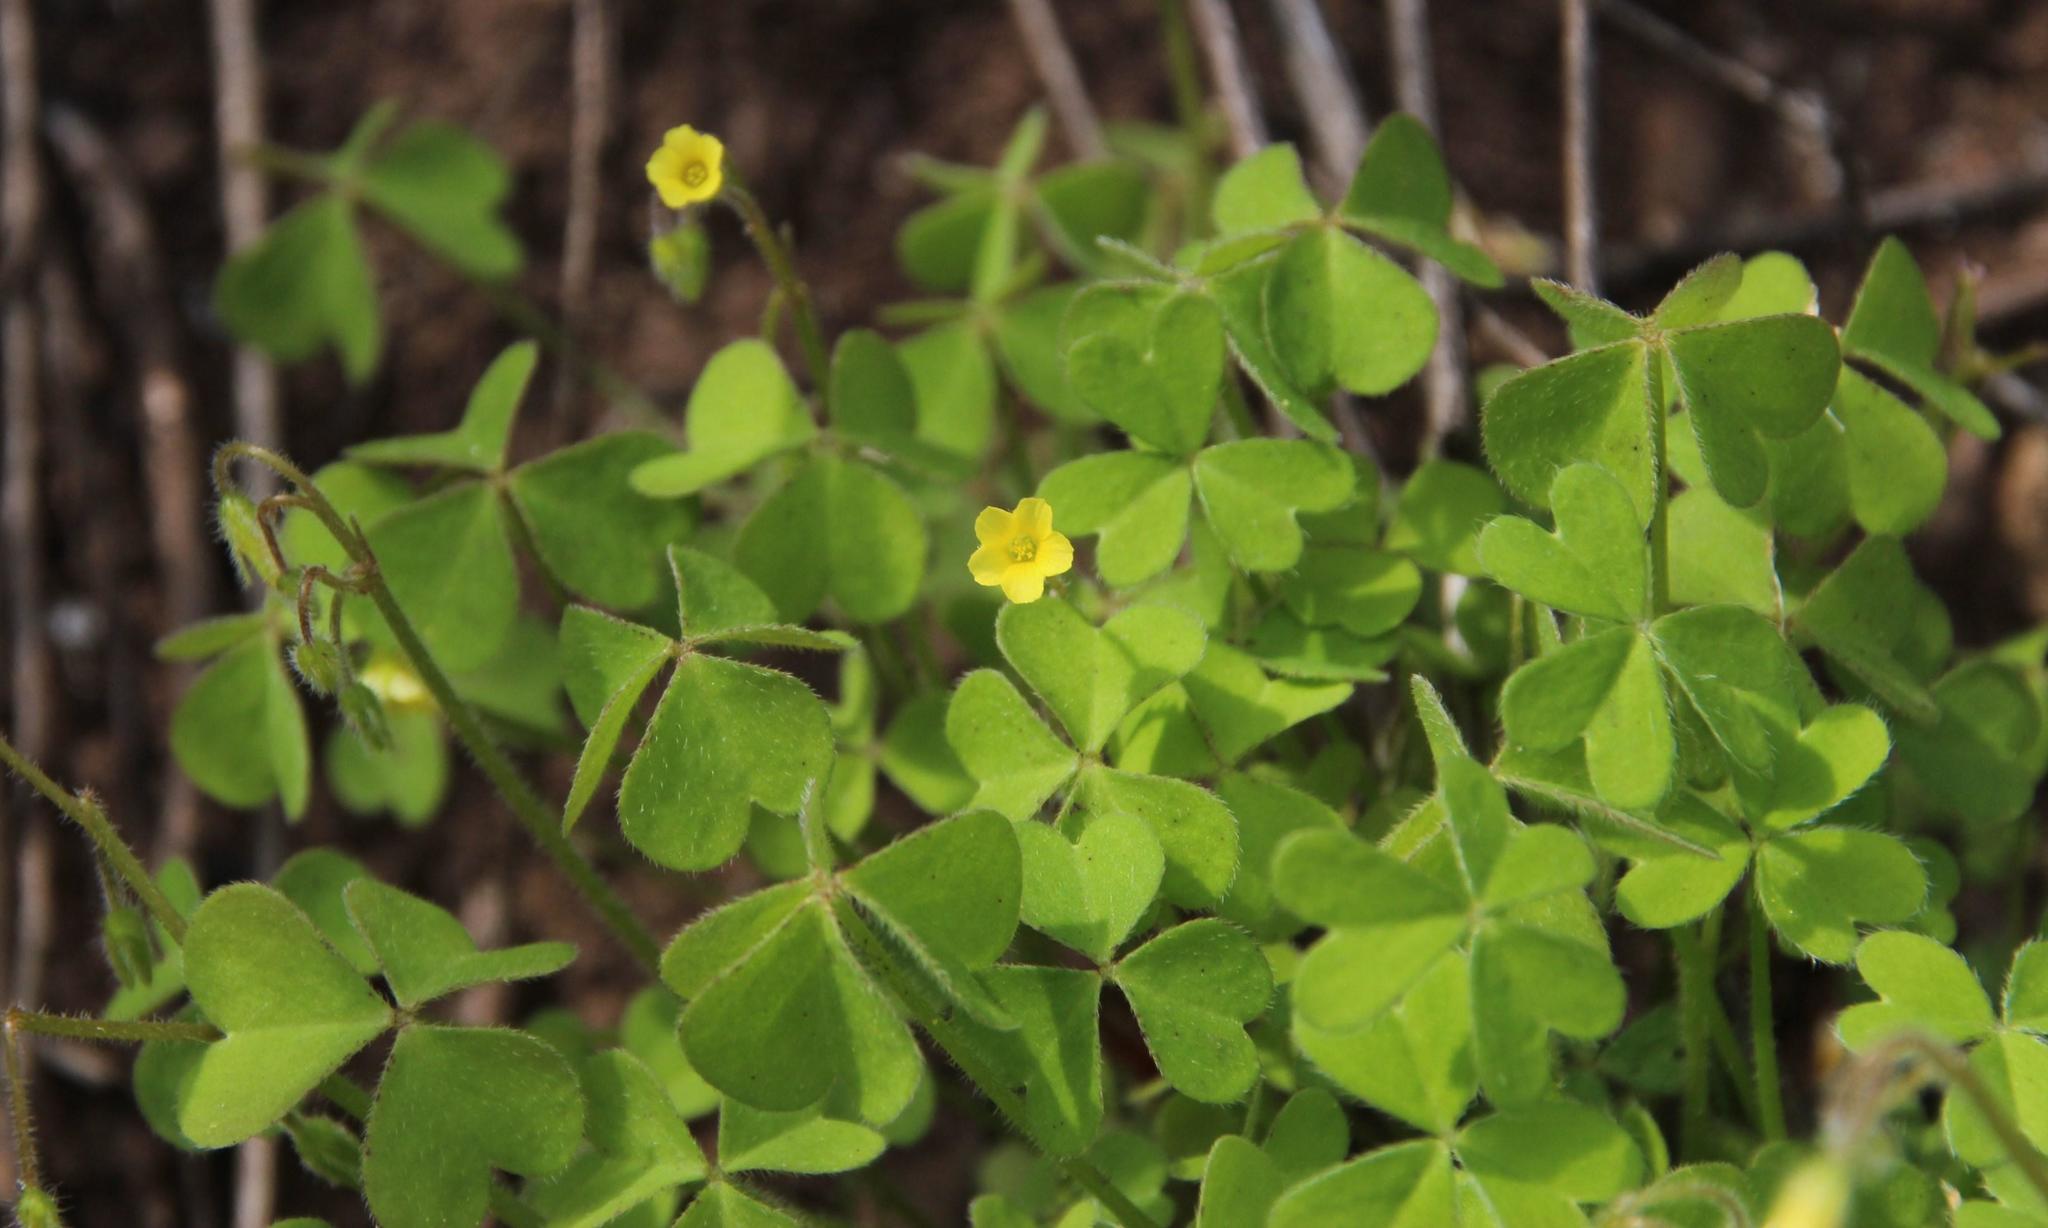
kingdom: Plantae
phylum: Tracheophyta
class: Magnoliopsida
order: Oxalidales
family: Oxalidaceae
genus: Oxalis
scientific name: Oxalis laxa
